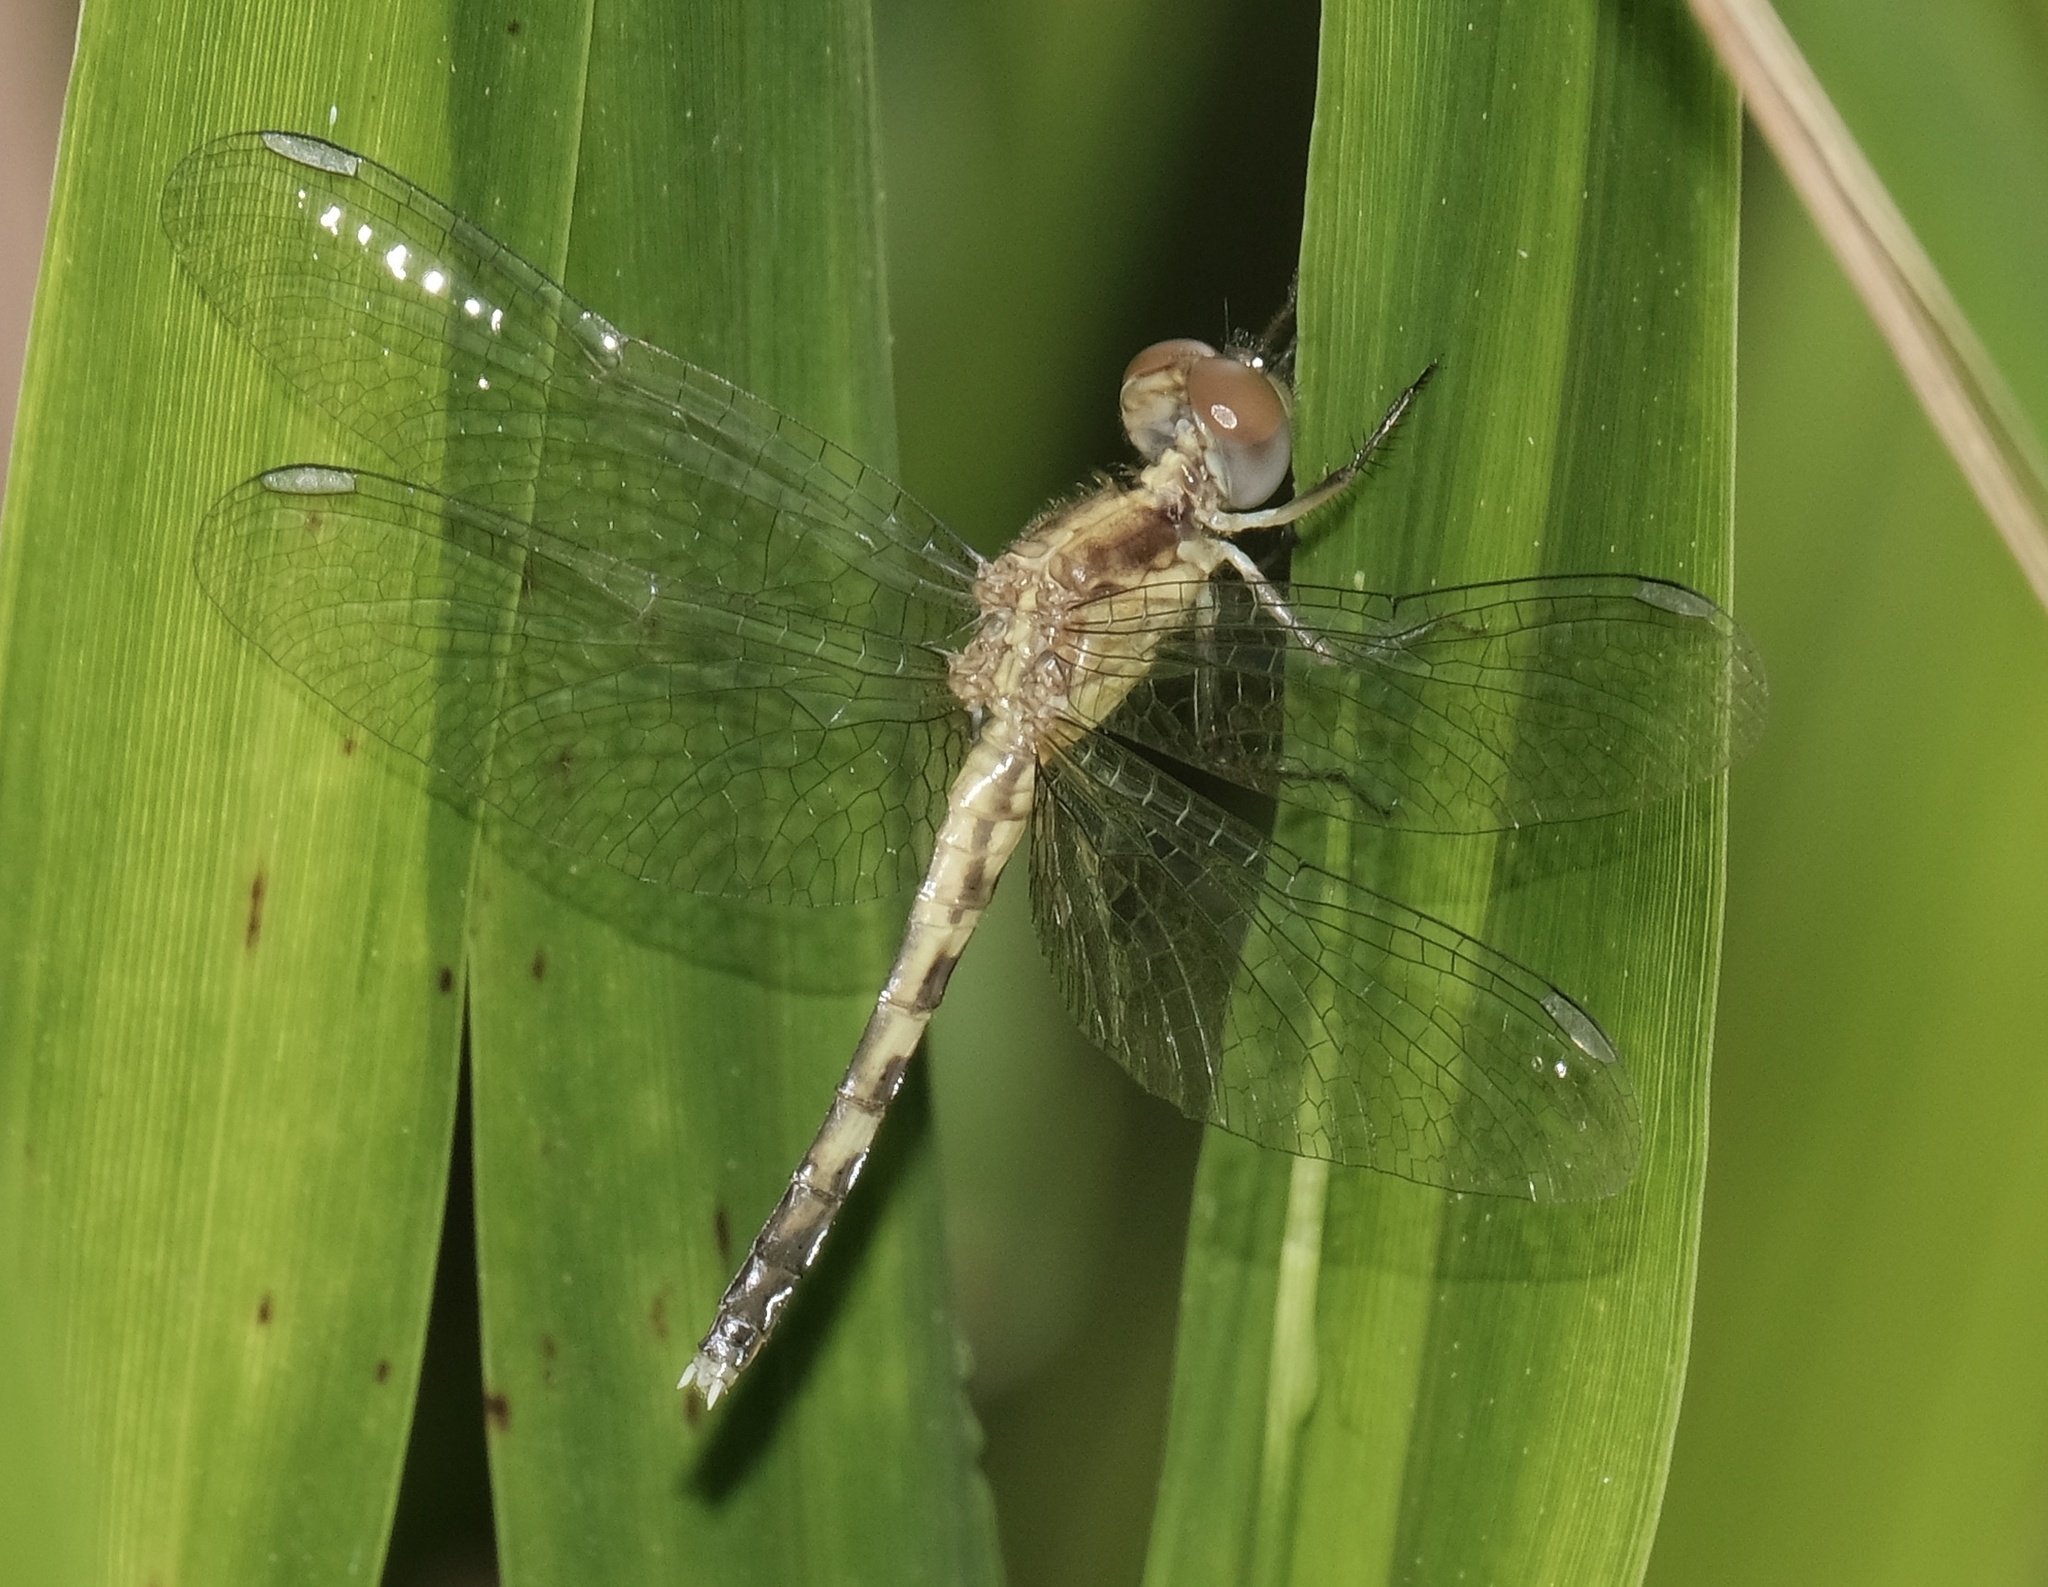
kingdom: Animalia
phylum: Arthropoda
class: Insecta
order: Odonata
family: Libellulidae
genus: Erythrodiplax
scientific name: Erythrodiplax minuscula
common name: Little blue dragonlet
